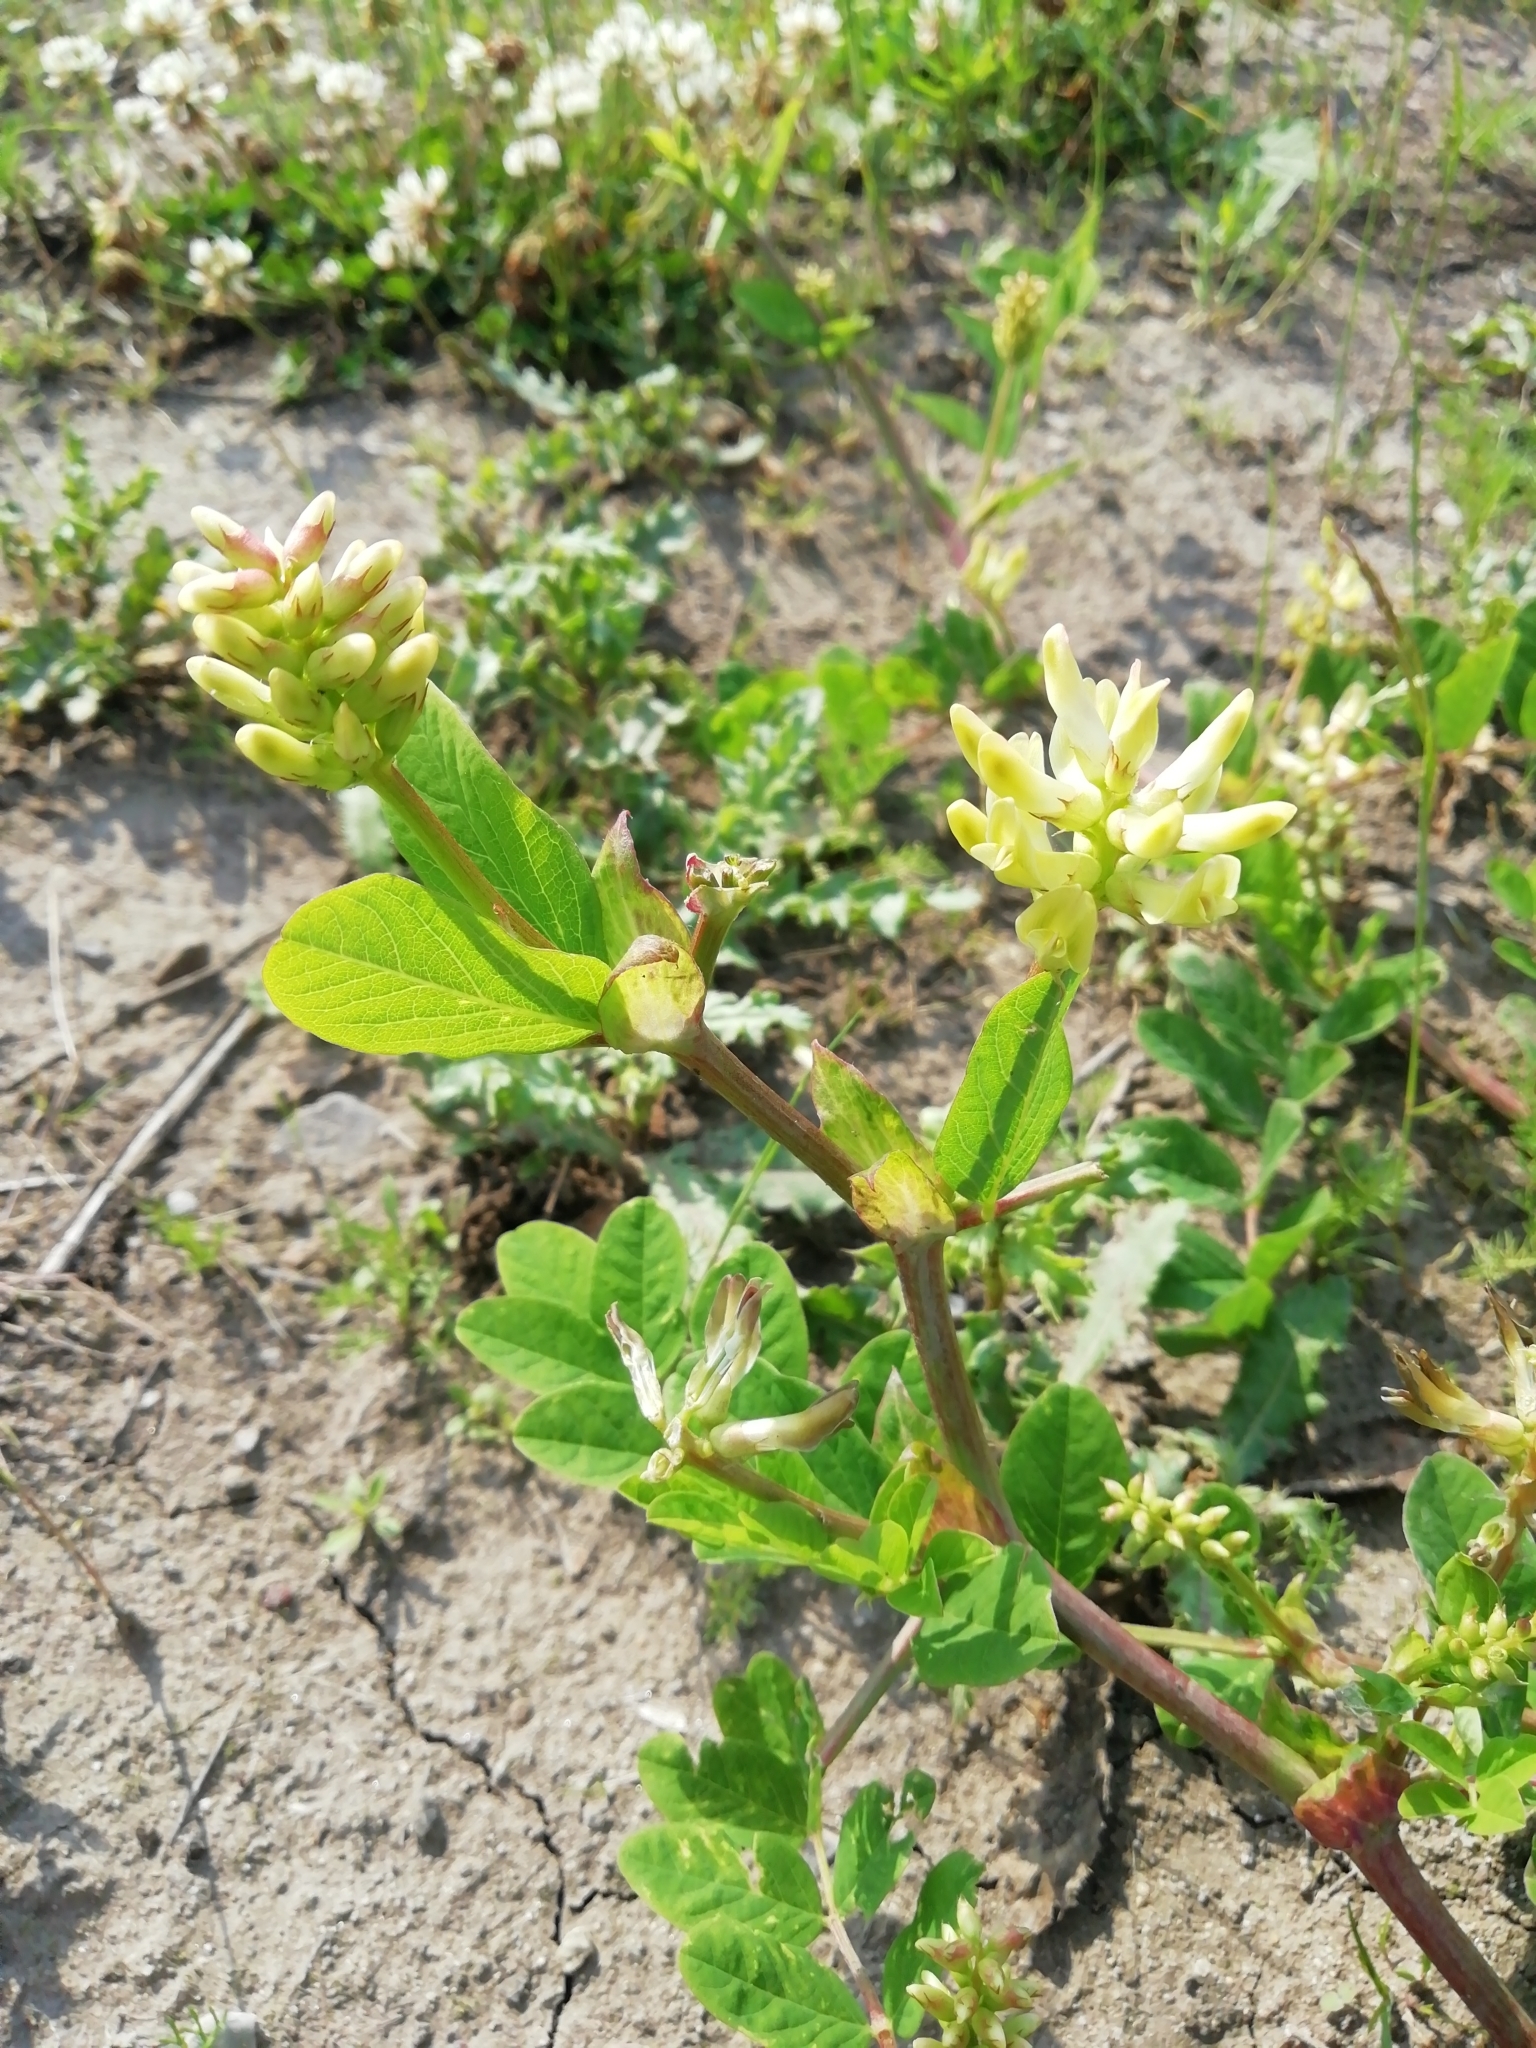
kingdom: Plantae
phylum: Tracheophyta
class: Magnoliopsida
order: Fabales
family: Fabaceae
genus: Astragalus
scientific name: Astragalus glycyphyllos
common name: Wild liquorice
